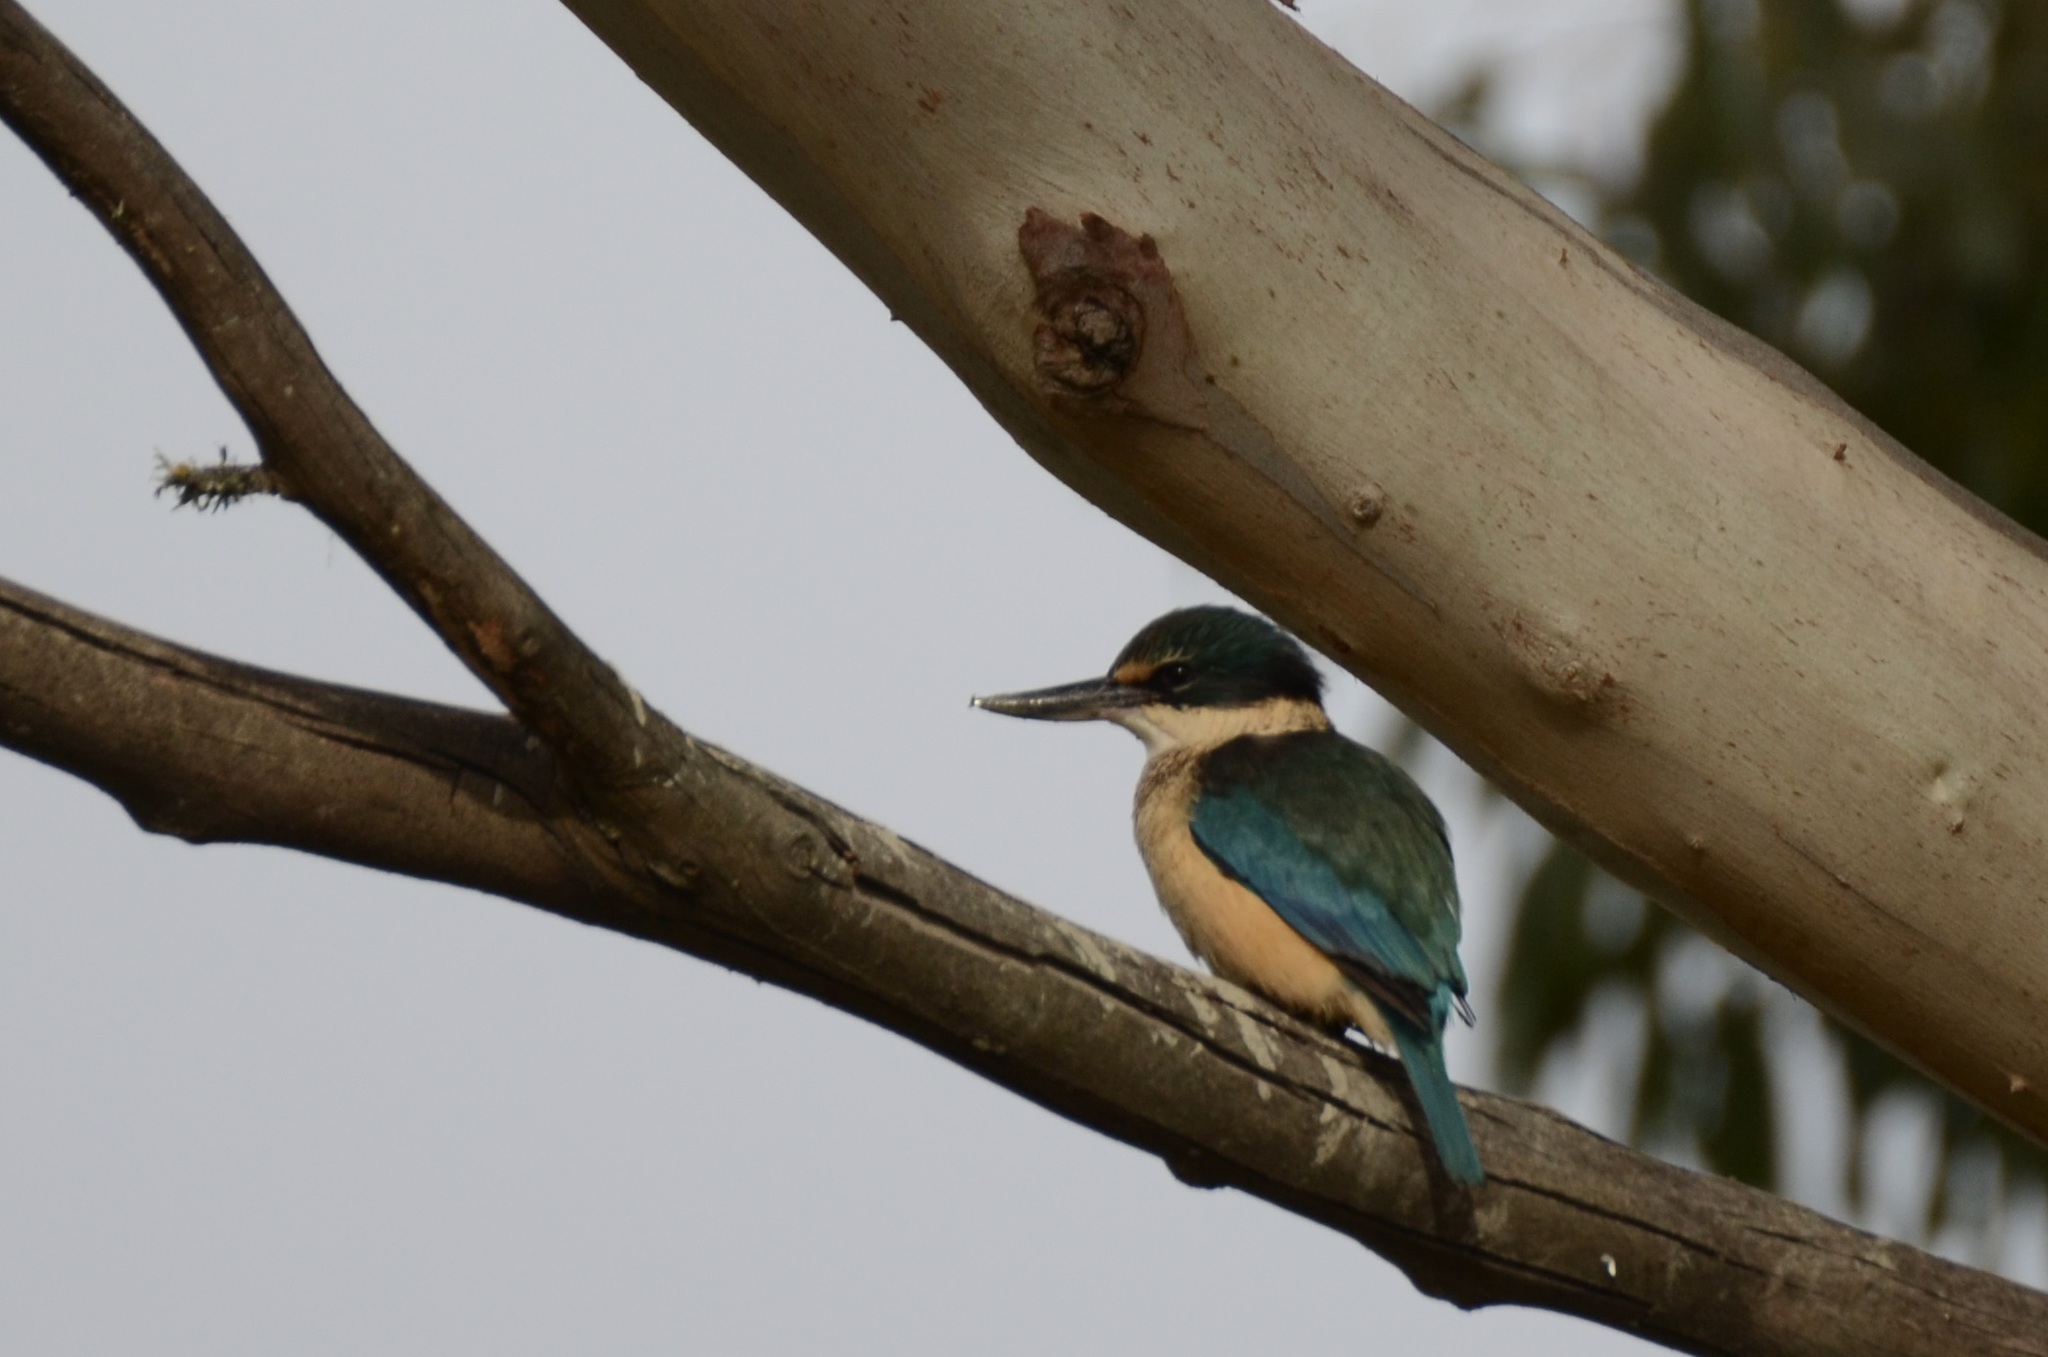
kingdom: Animalia
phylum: Chordata
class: Aves
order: Coraciiformes
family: Alcedinidae
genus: Todiramphus
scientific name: Todiramphus sanctus
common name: Sacred kingfisher
